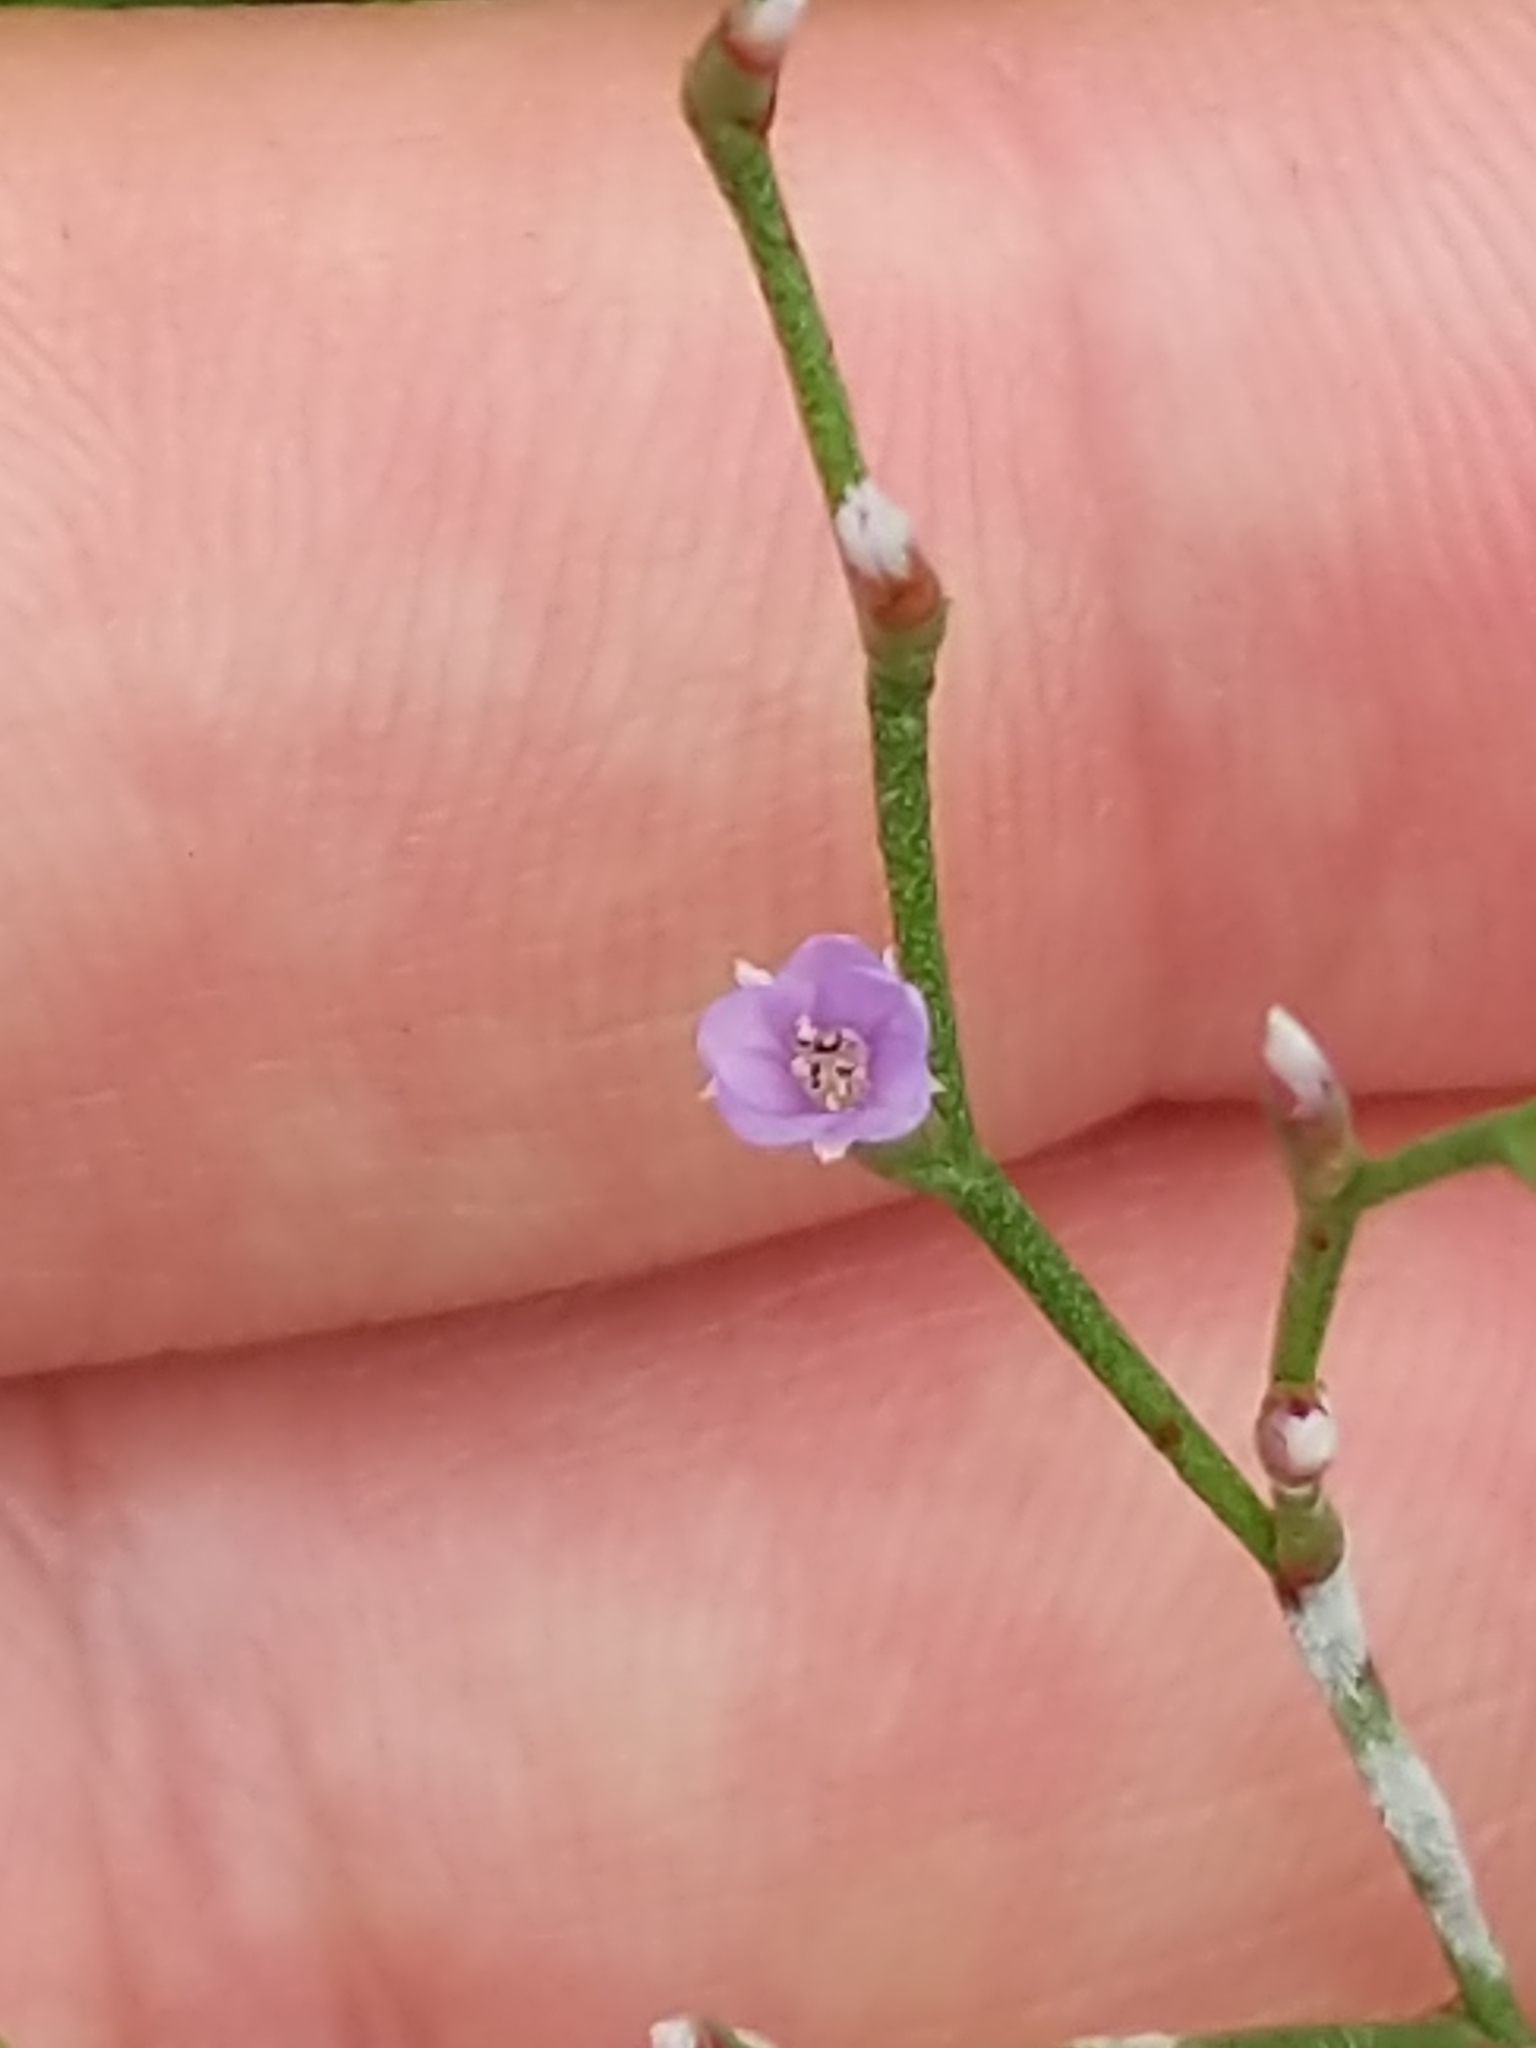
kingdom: Plantae
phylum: Tracheophyta
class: Magnoliopsida
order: Caryophyllales
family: Plumbaginaceae
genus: Limonium
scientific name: Limonium carolinianum
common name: Carolina sea lavender
